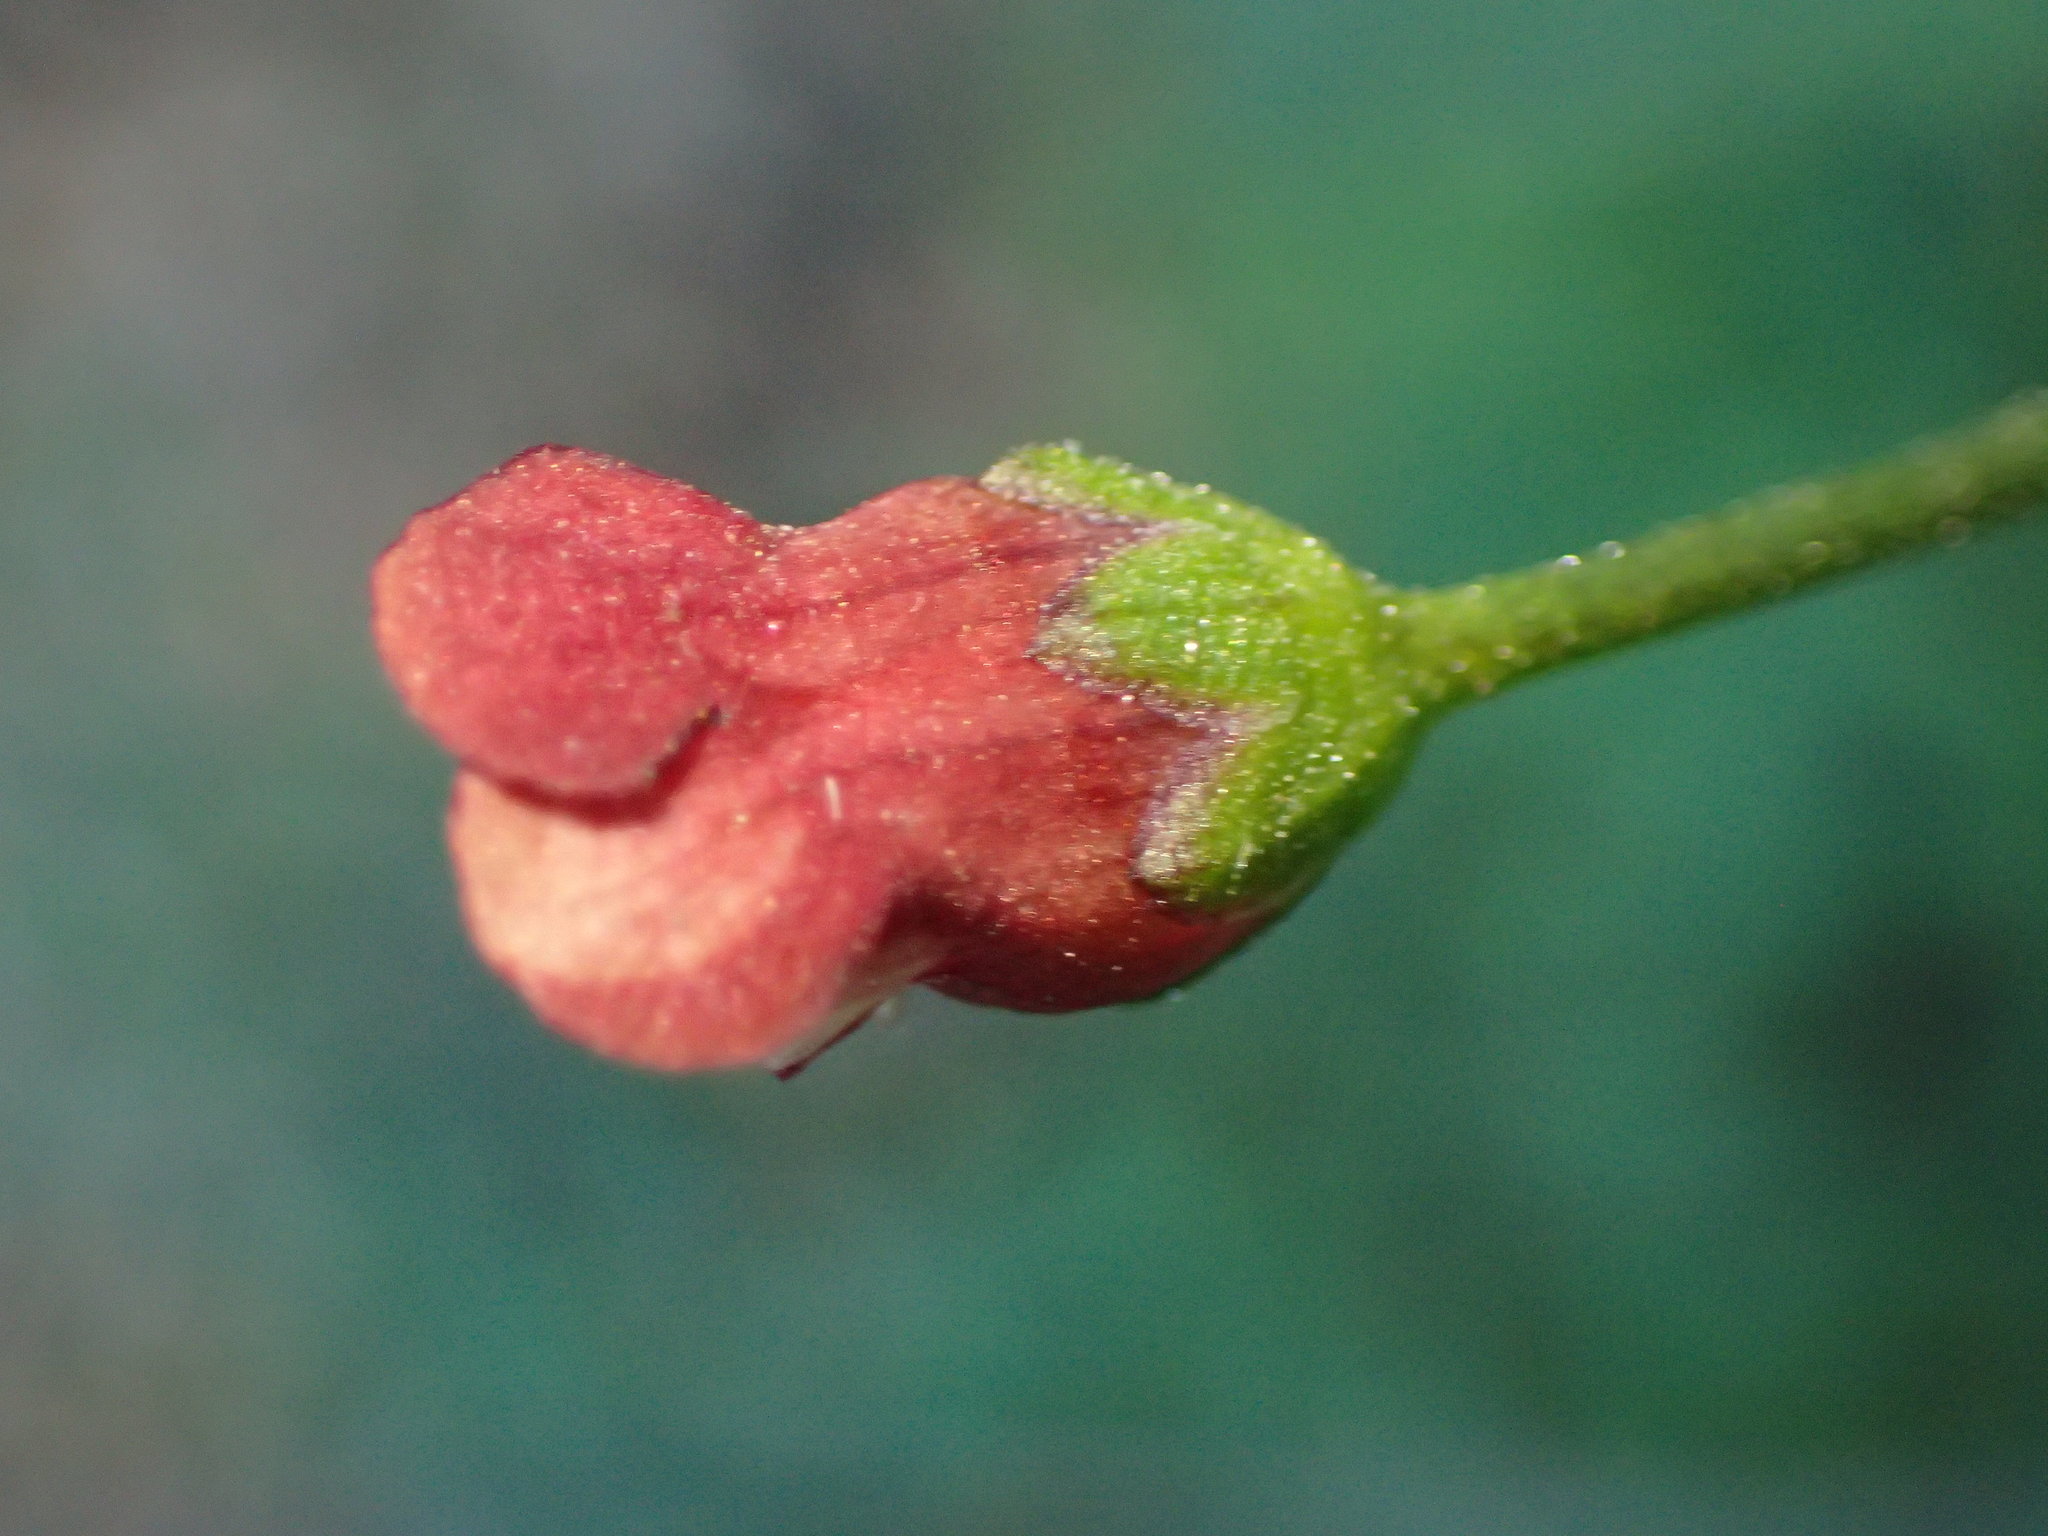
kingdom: Plantae
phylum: Tracheophyta
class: Magnoliopsida
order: Lamiales
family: Scrophulariaceae
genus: Scrophularia
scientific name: Scrophularia californica
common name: California figwort
